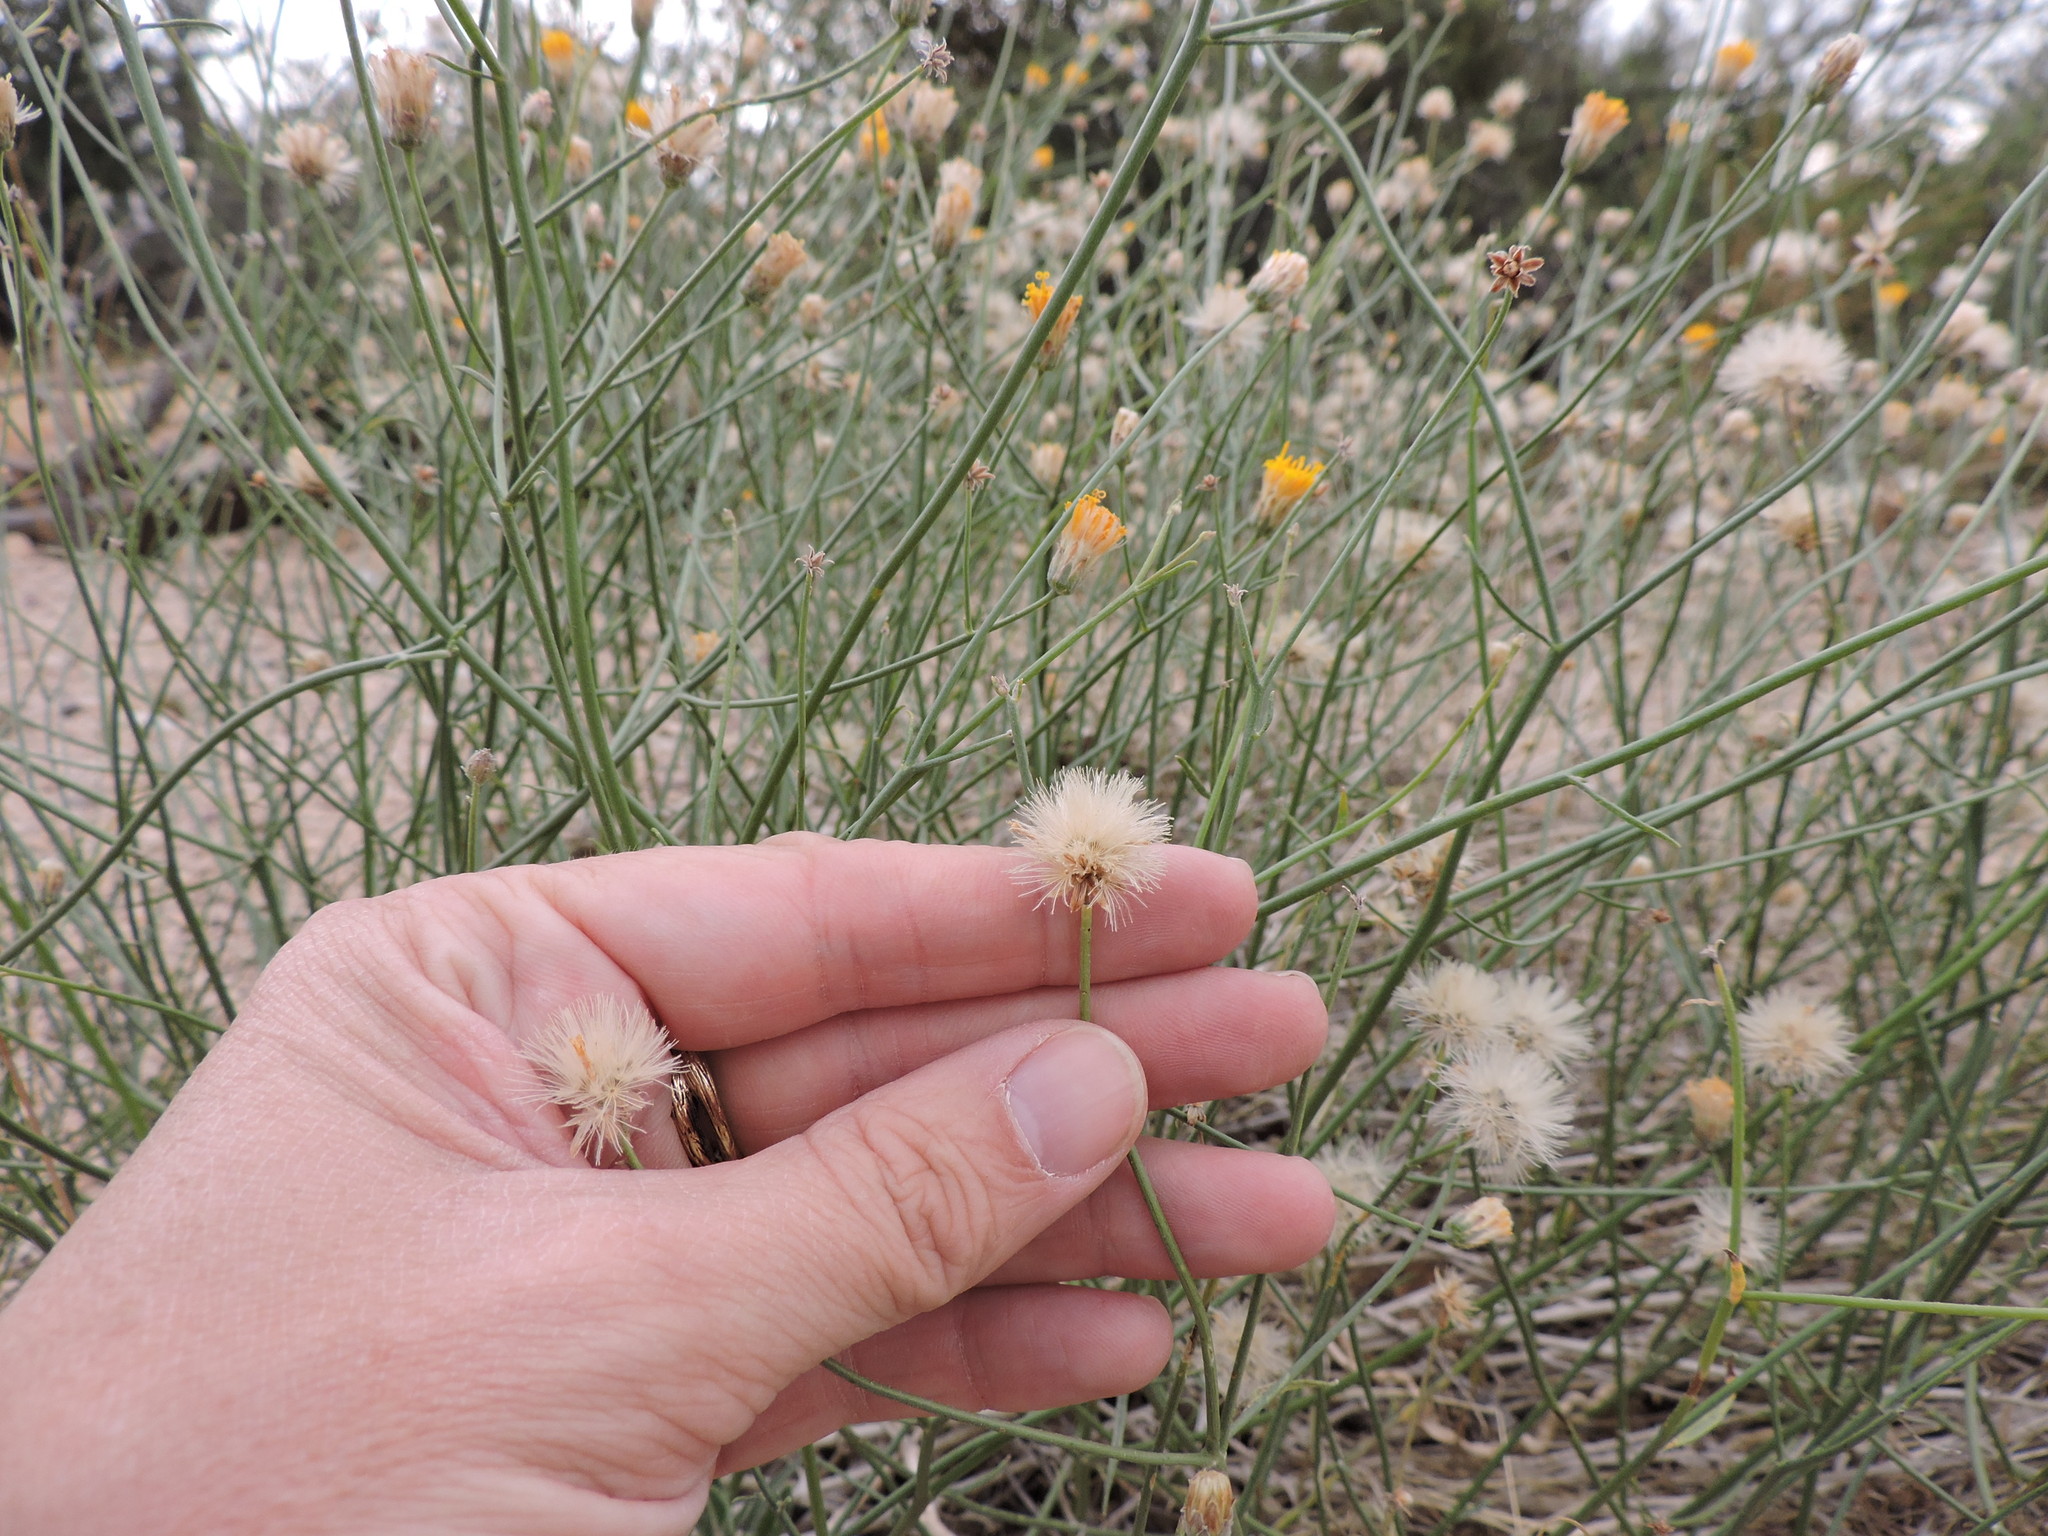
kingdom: Plantae
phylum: Tracheophyta
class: Magnoliopsida
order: Asterales
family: Asteraceae
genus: Bebbia
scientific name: Bebbia juncea
